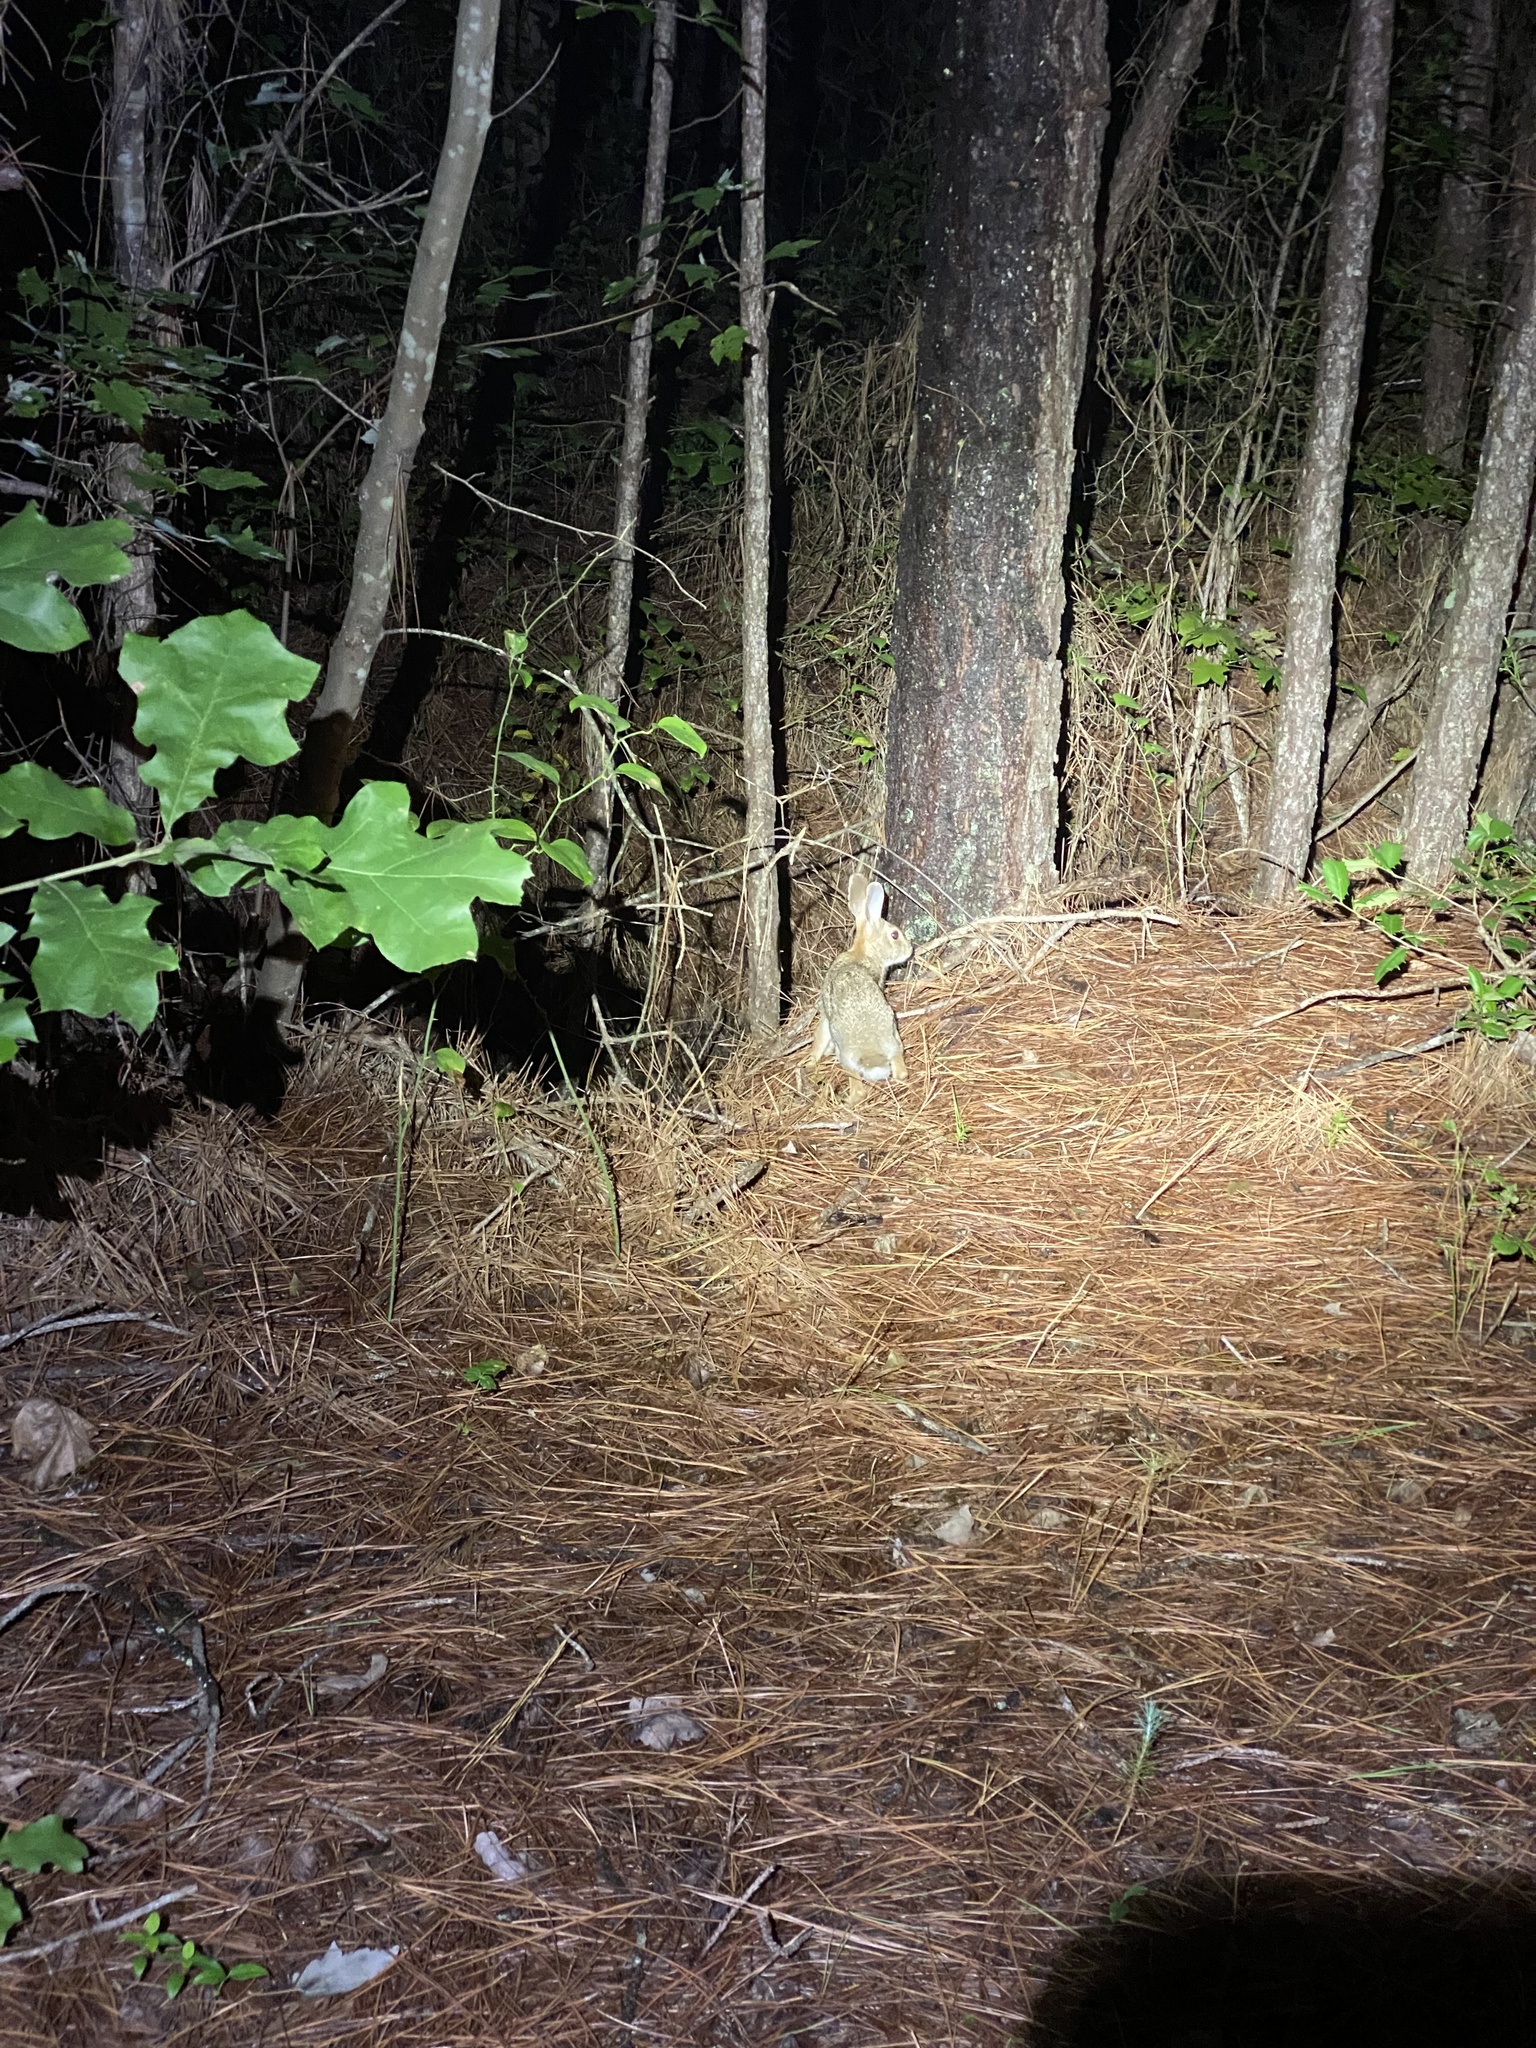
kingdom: Animalia
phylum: Chordata
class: Mammalia
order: Lagomorpha
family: Leporidae
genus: Sylvilagus
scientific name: Sylvilagus floridanus
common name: Eastern cottontail
